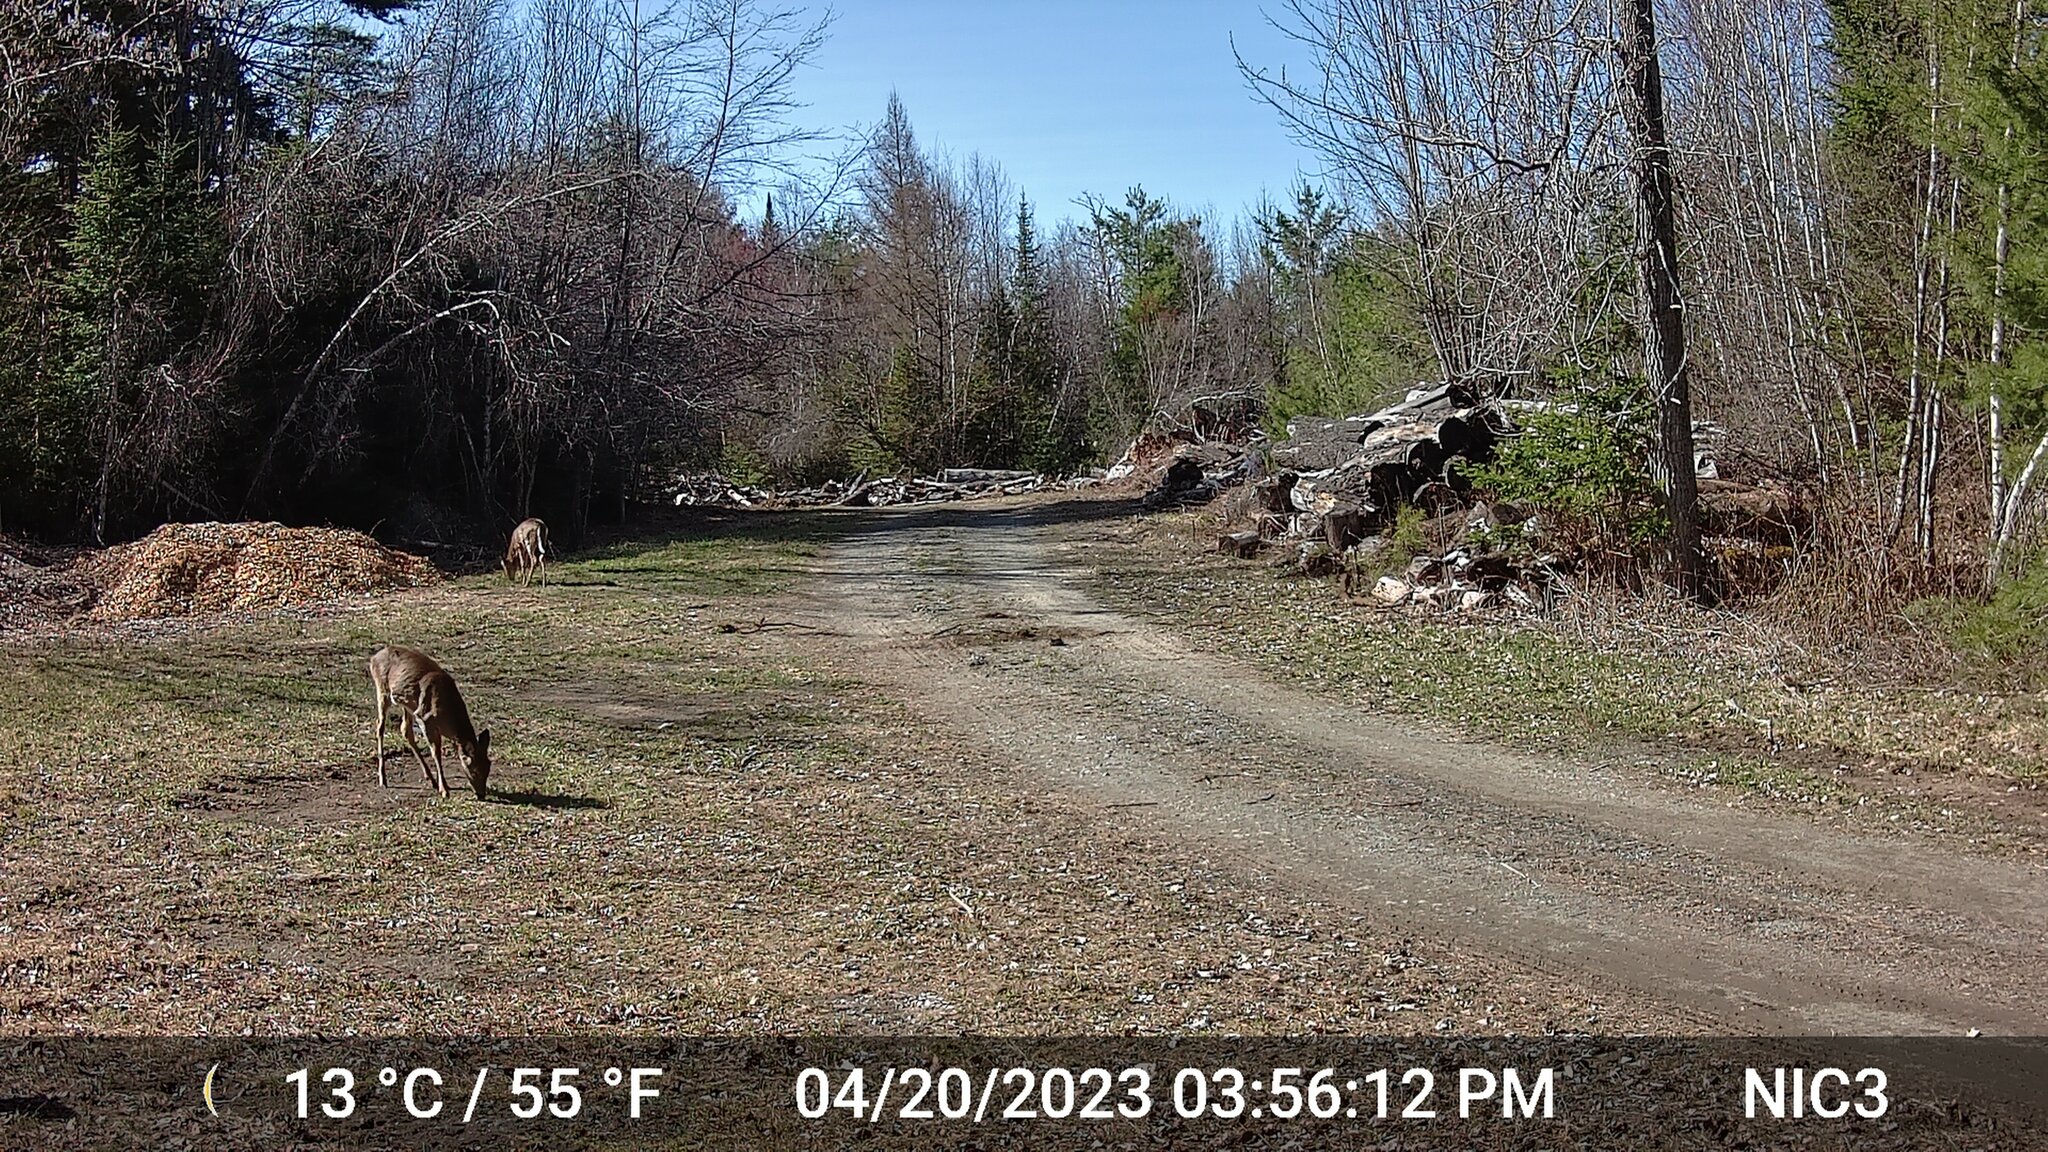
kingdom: Animalia
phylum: Chordata
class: Mammalia
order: Artiodactyla
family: Cervidae
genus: Odocoileus
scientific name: Odocoileus virginianus
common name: White-tailed deer
